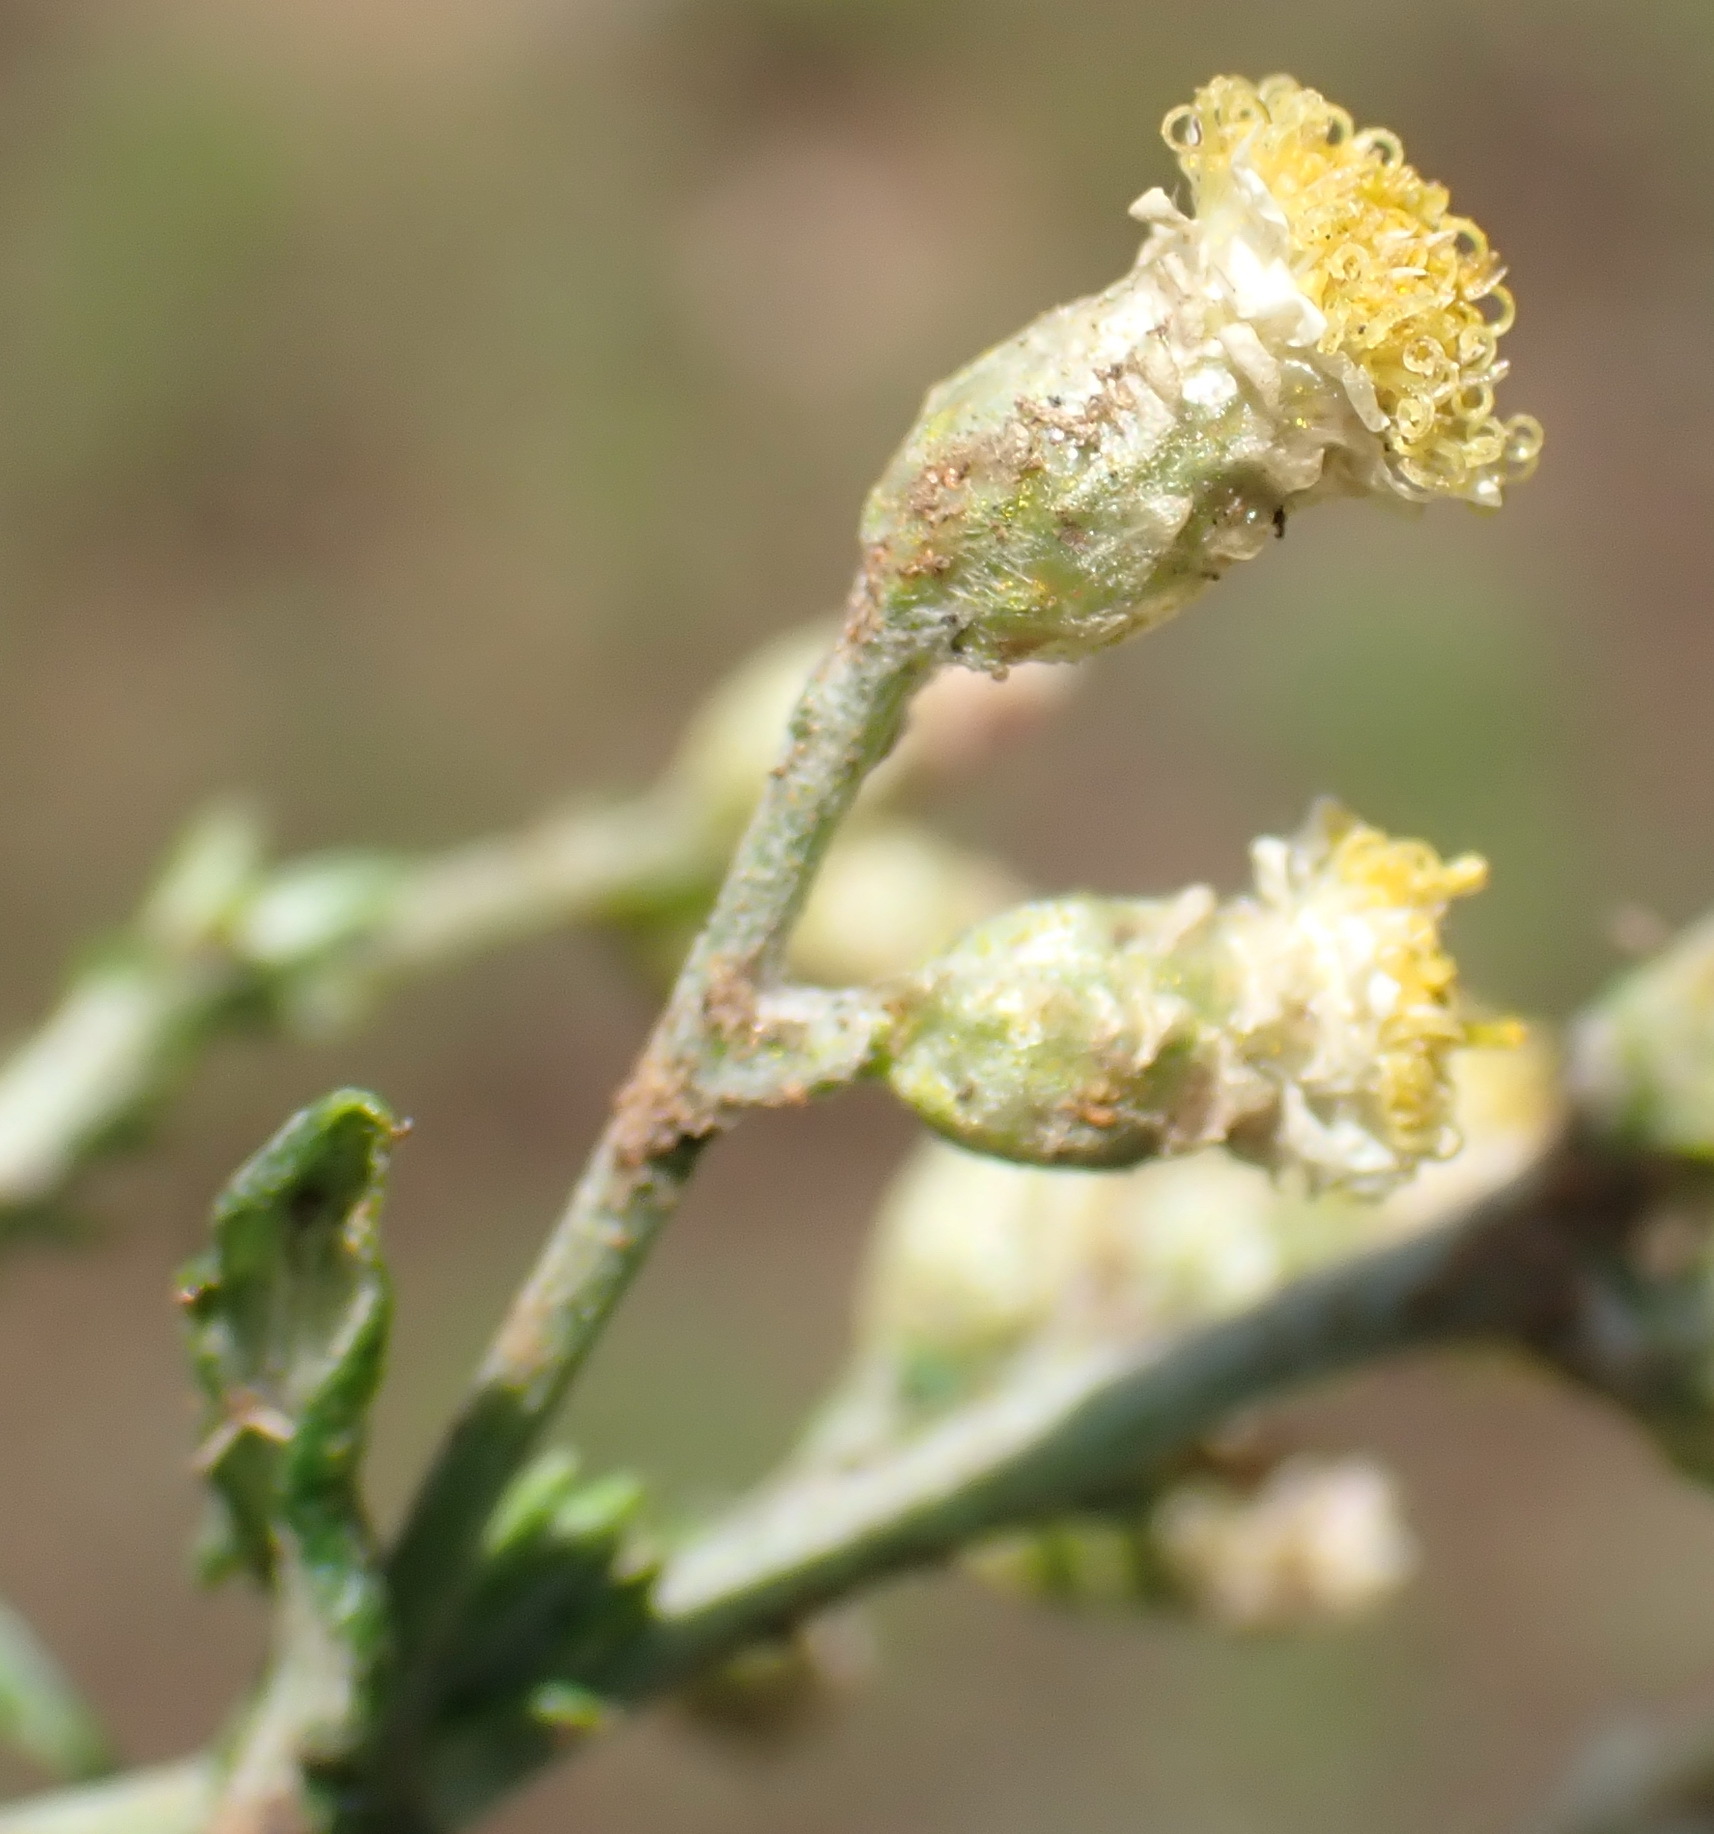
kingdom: Plantae
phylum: Tracheophyta
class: Magnoliopsida
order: Asterales
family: Asteraceae
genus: Helichrysum
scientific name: Helichrysum rugulosum
